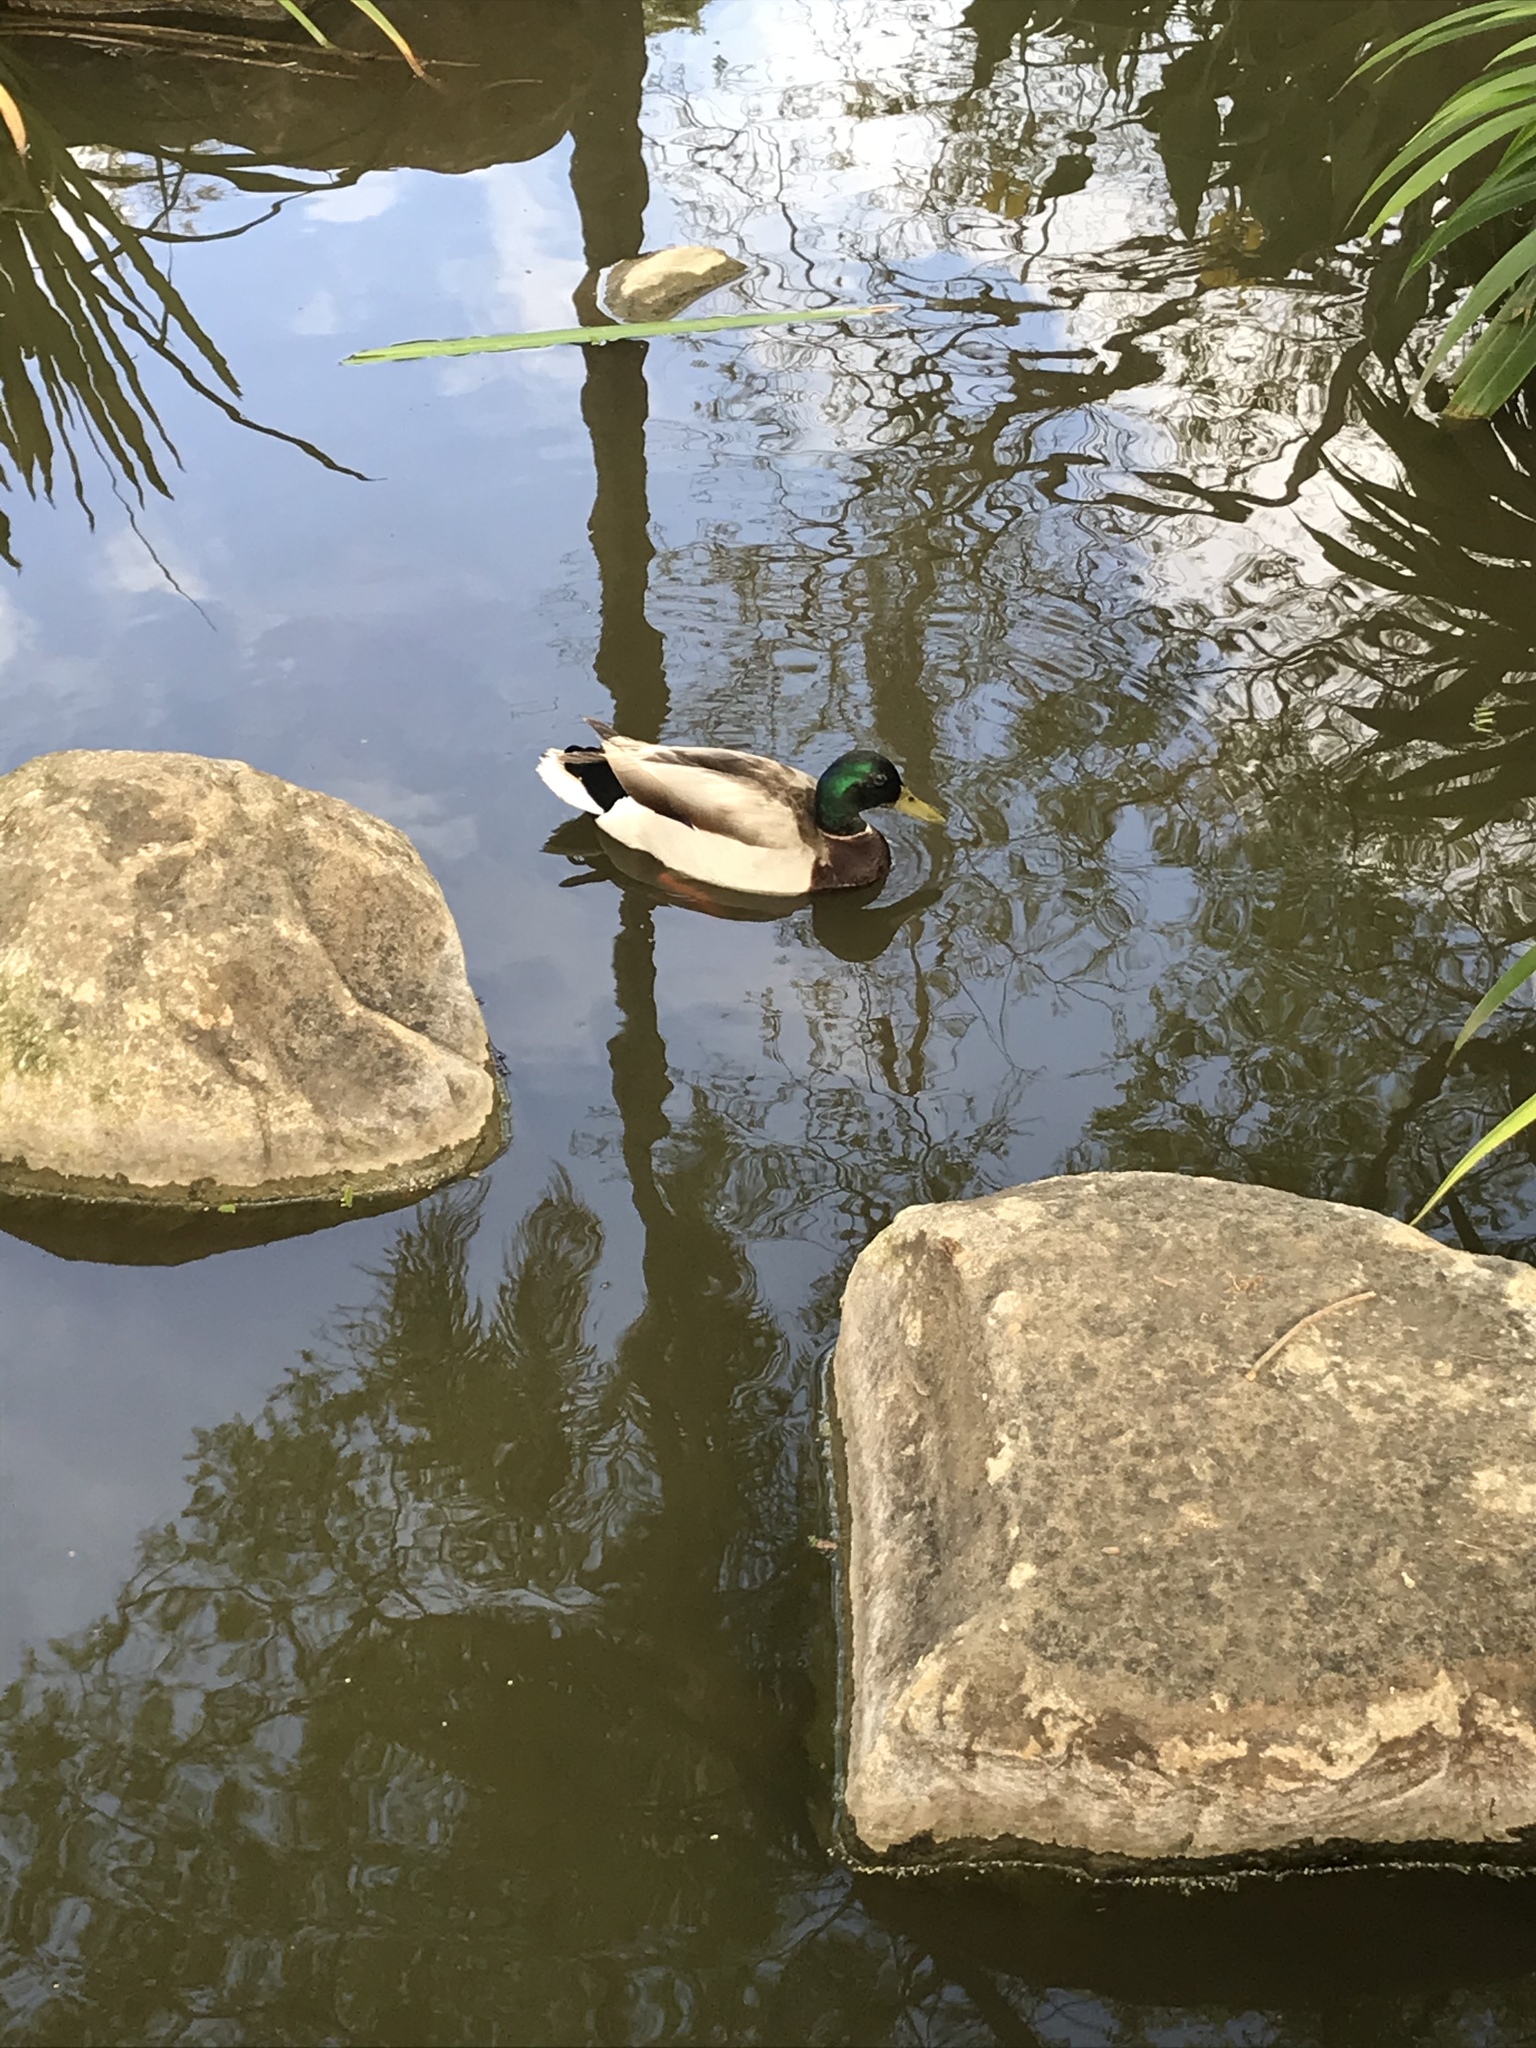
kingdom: Animalia
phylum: Chordata
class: Aves
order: Anseriformes
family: Anatidae
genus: Anas
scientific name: Anas platyrhynchos
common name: Mallard
